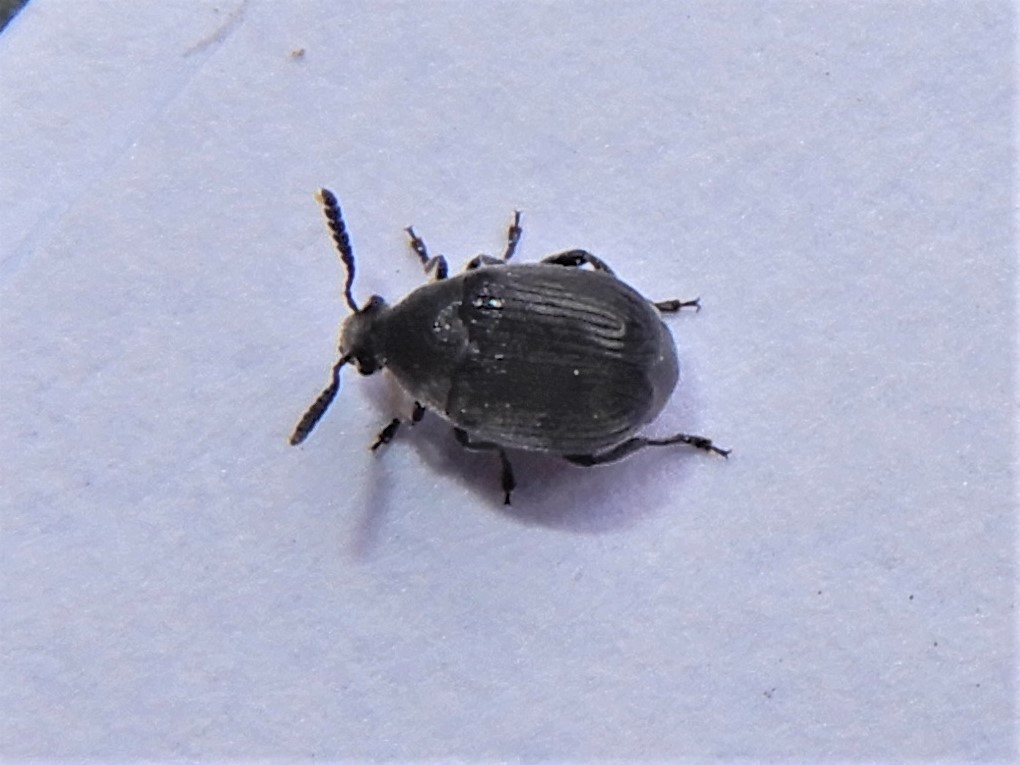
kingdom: Animalia
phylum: Arthropoda
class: Insecta
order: Coleoptera
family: Chrysomelidae
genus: Bruchidius
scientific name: Bruchidius villosus
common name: Scotch broom bruchid
